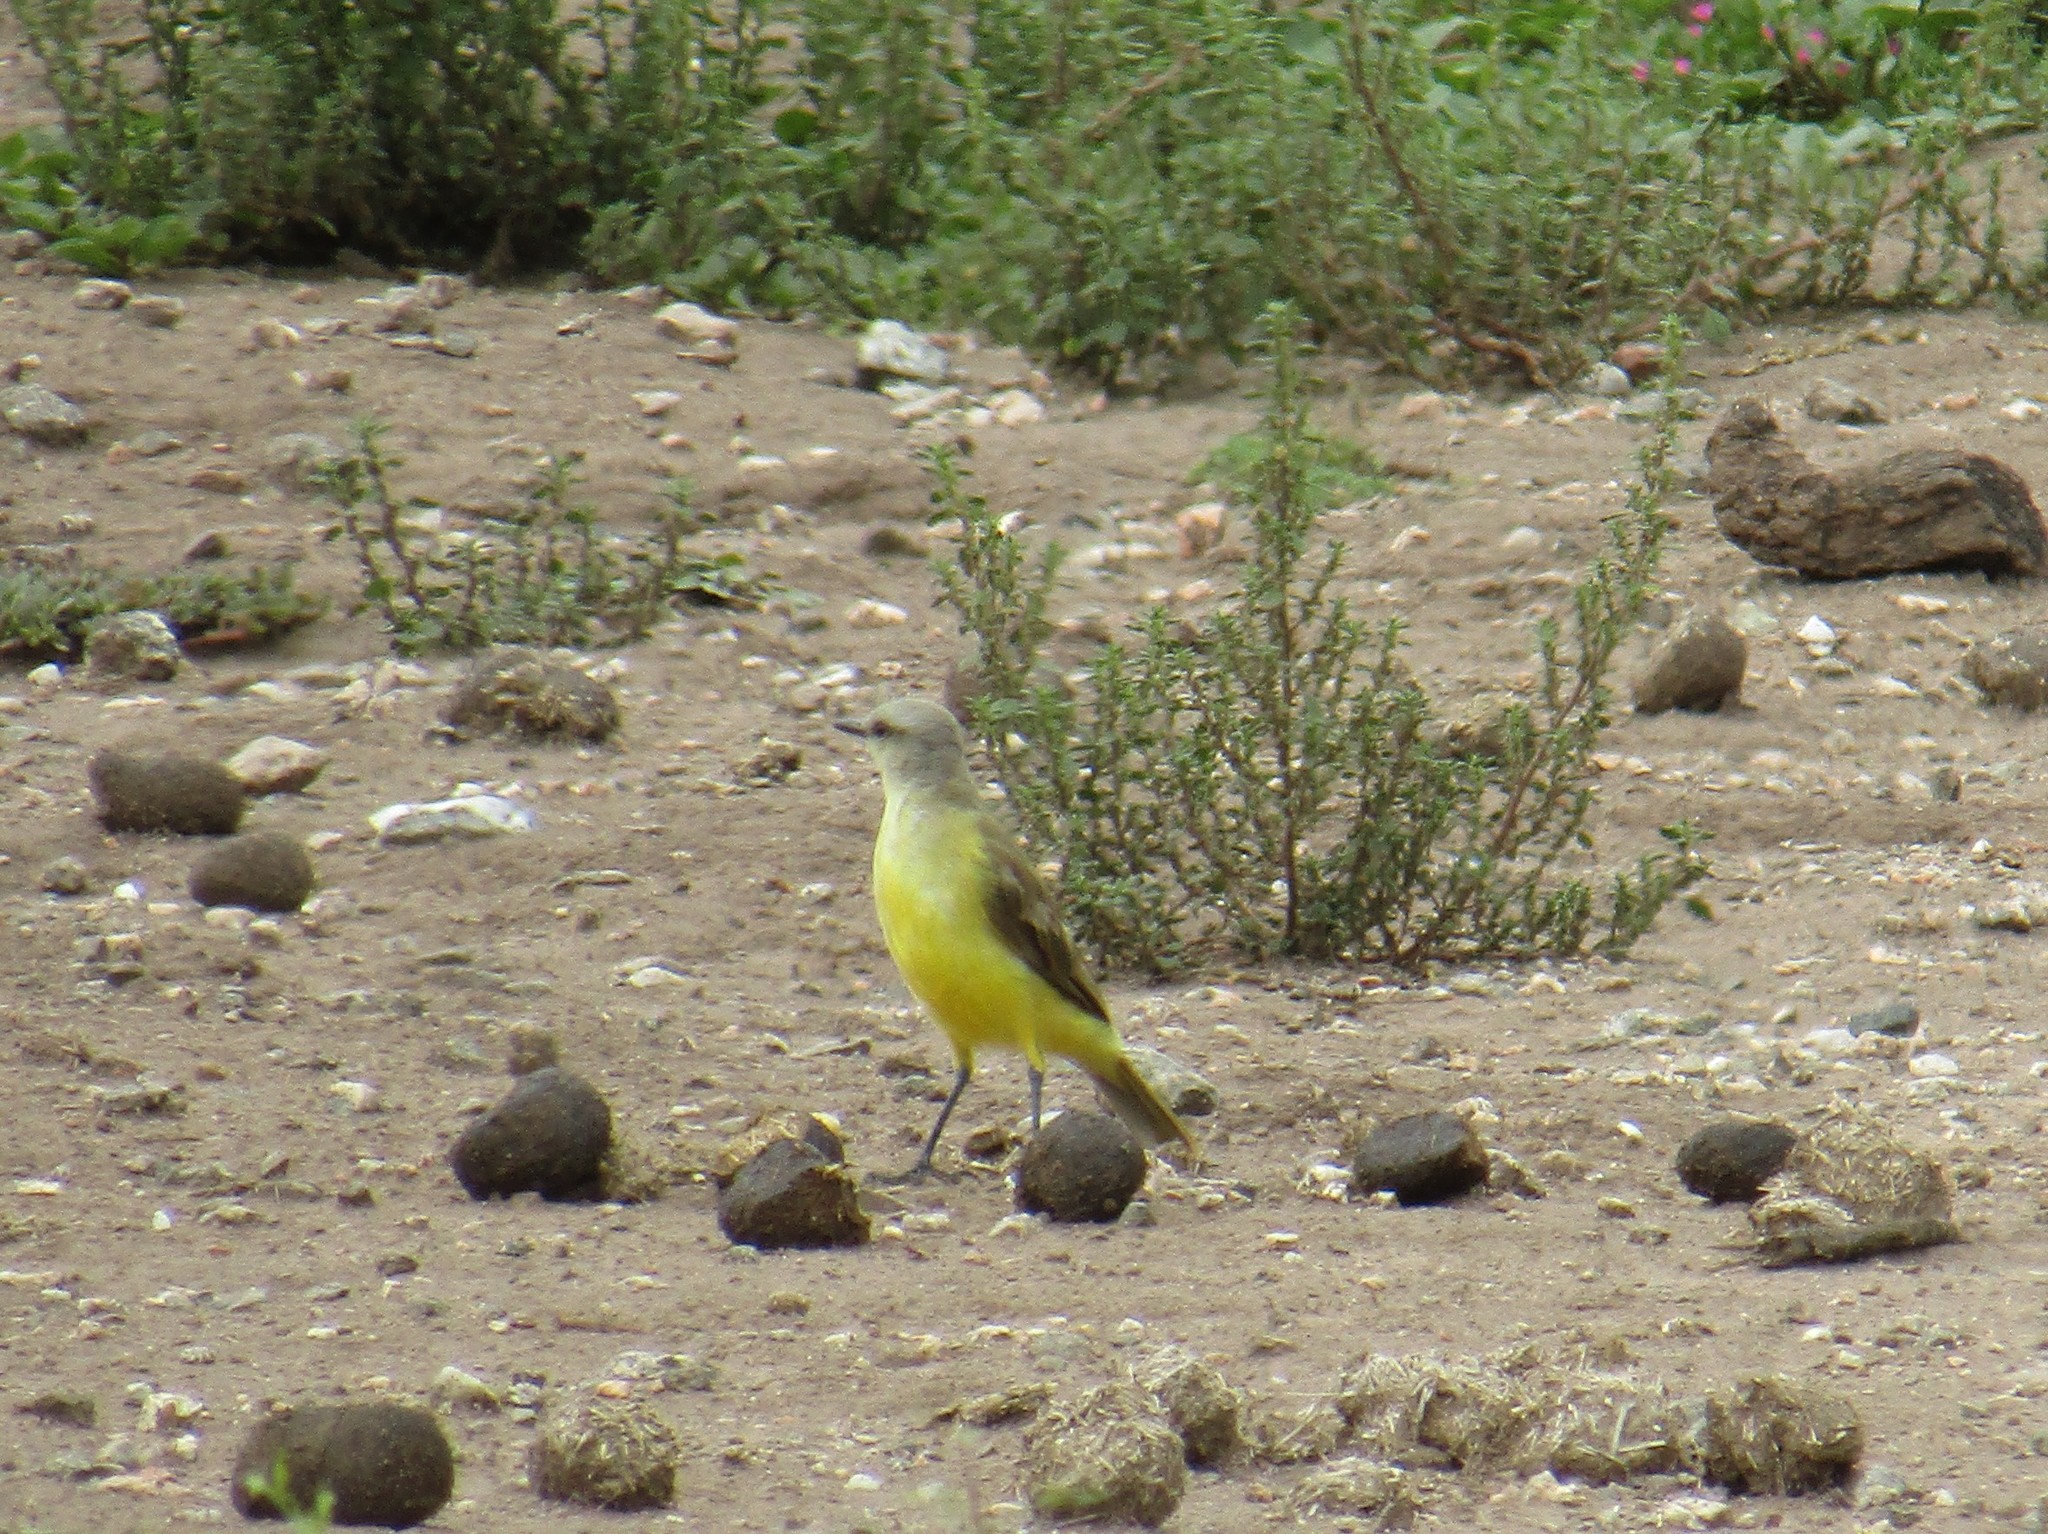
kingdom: Animalia
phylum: Chordata
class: Aves
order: Passeriformes
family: Tyrannidae
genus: Machetornis
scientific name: Machetornis rixosa
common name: Cattle tyrant
